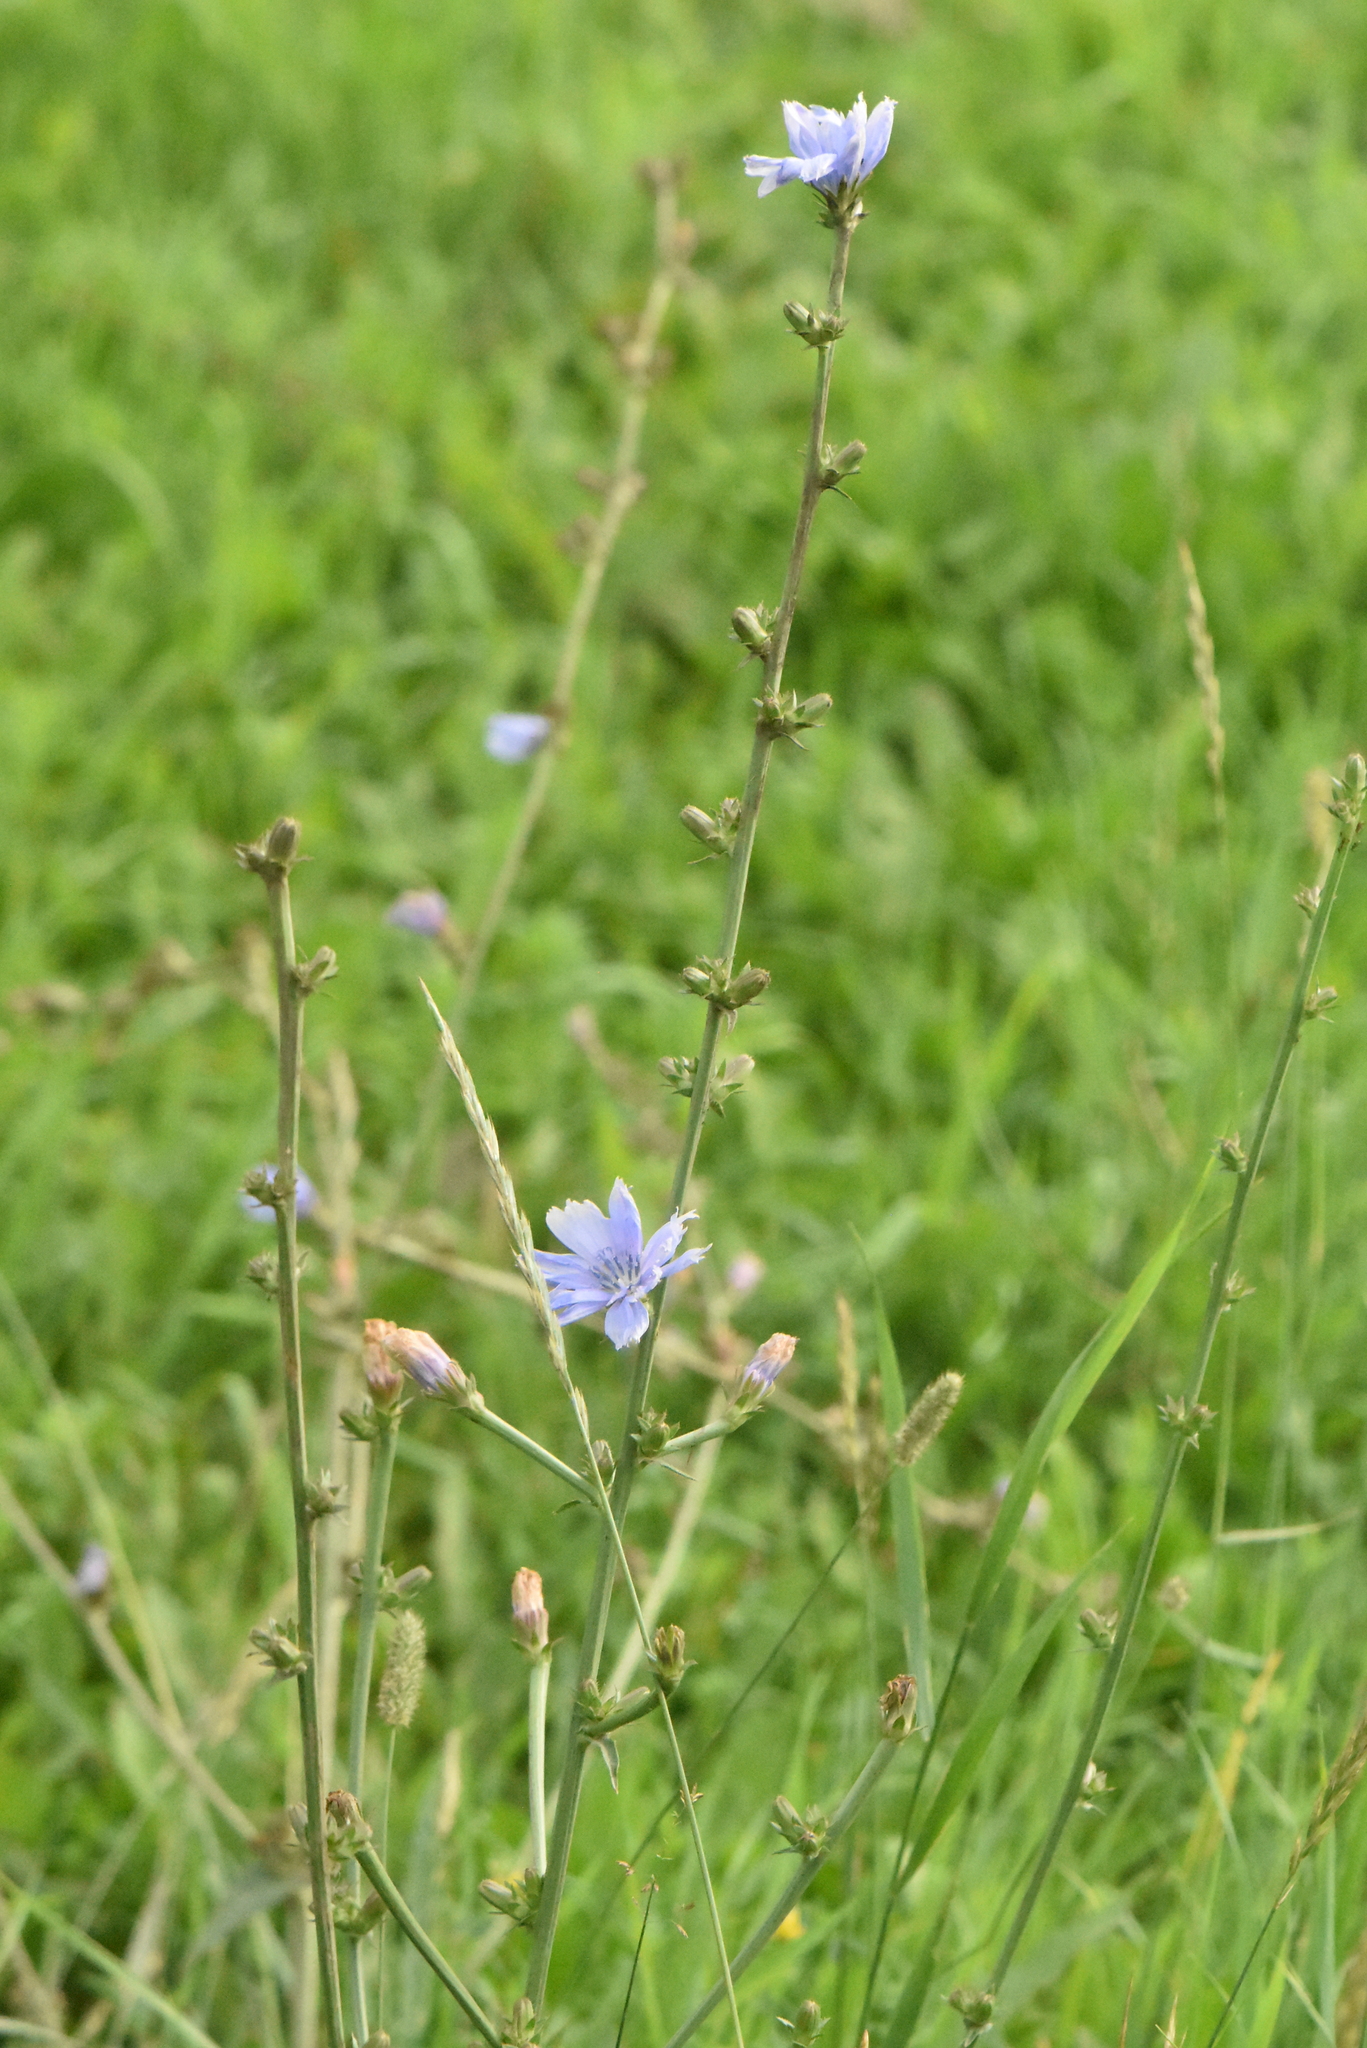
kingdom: Plantae
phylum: Tracheophyta
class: Magnoliopsida
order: Asterales
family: Asteraceae
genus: Cichorium
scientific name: Cichorium intybus
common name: Chicory
